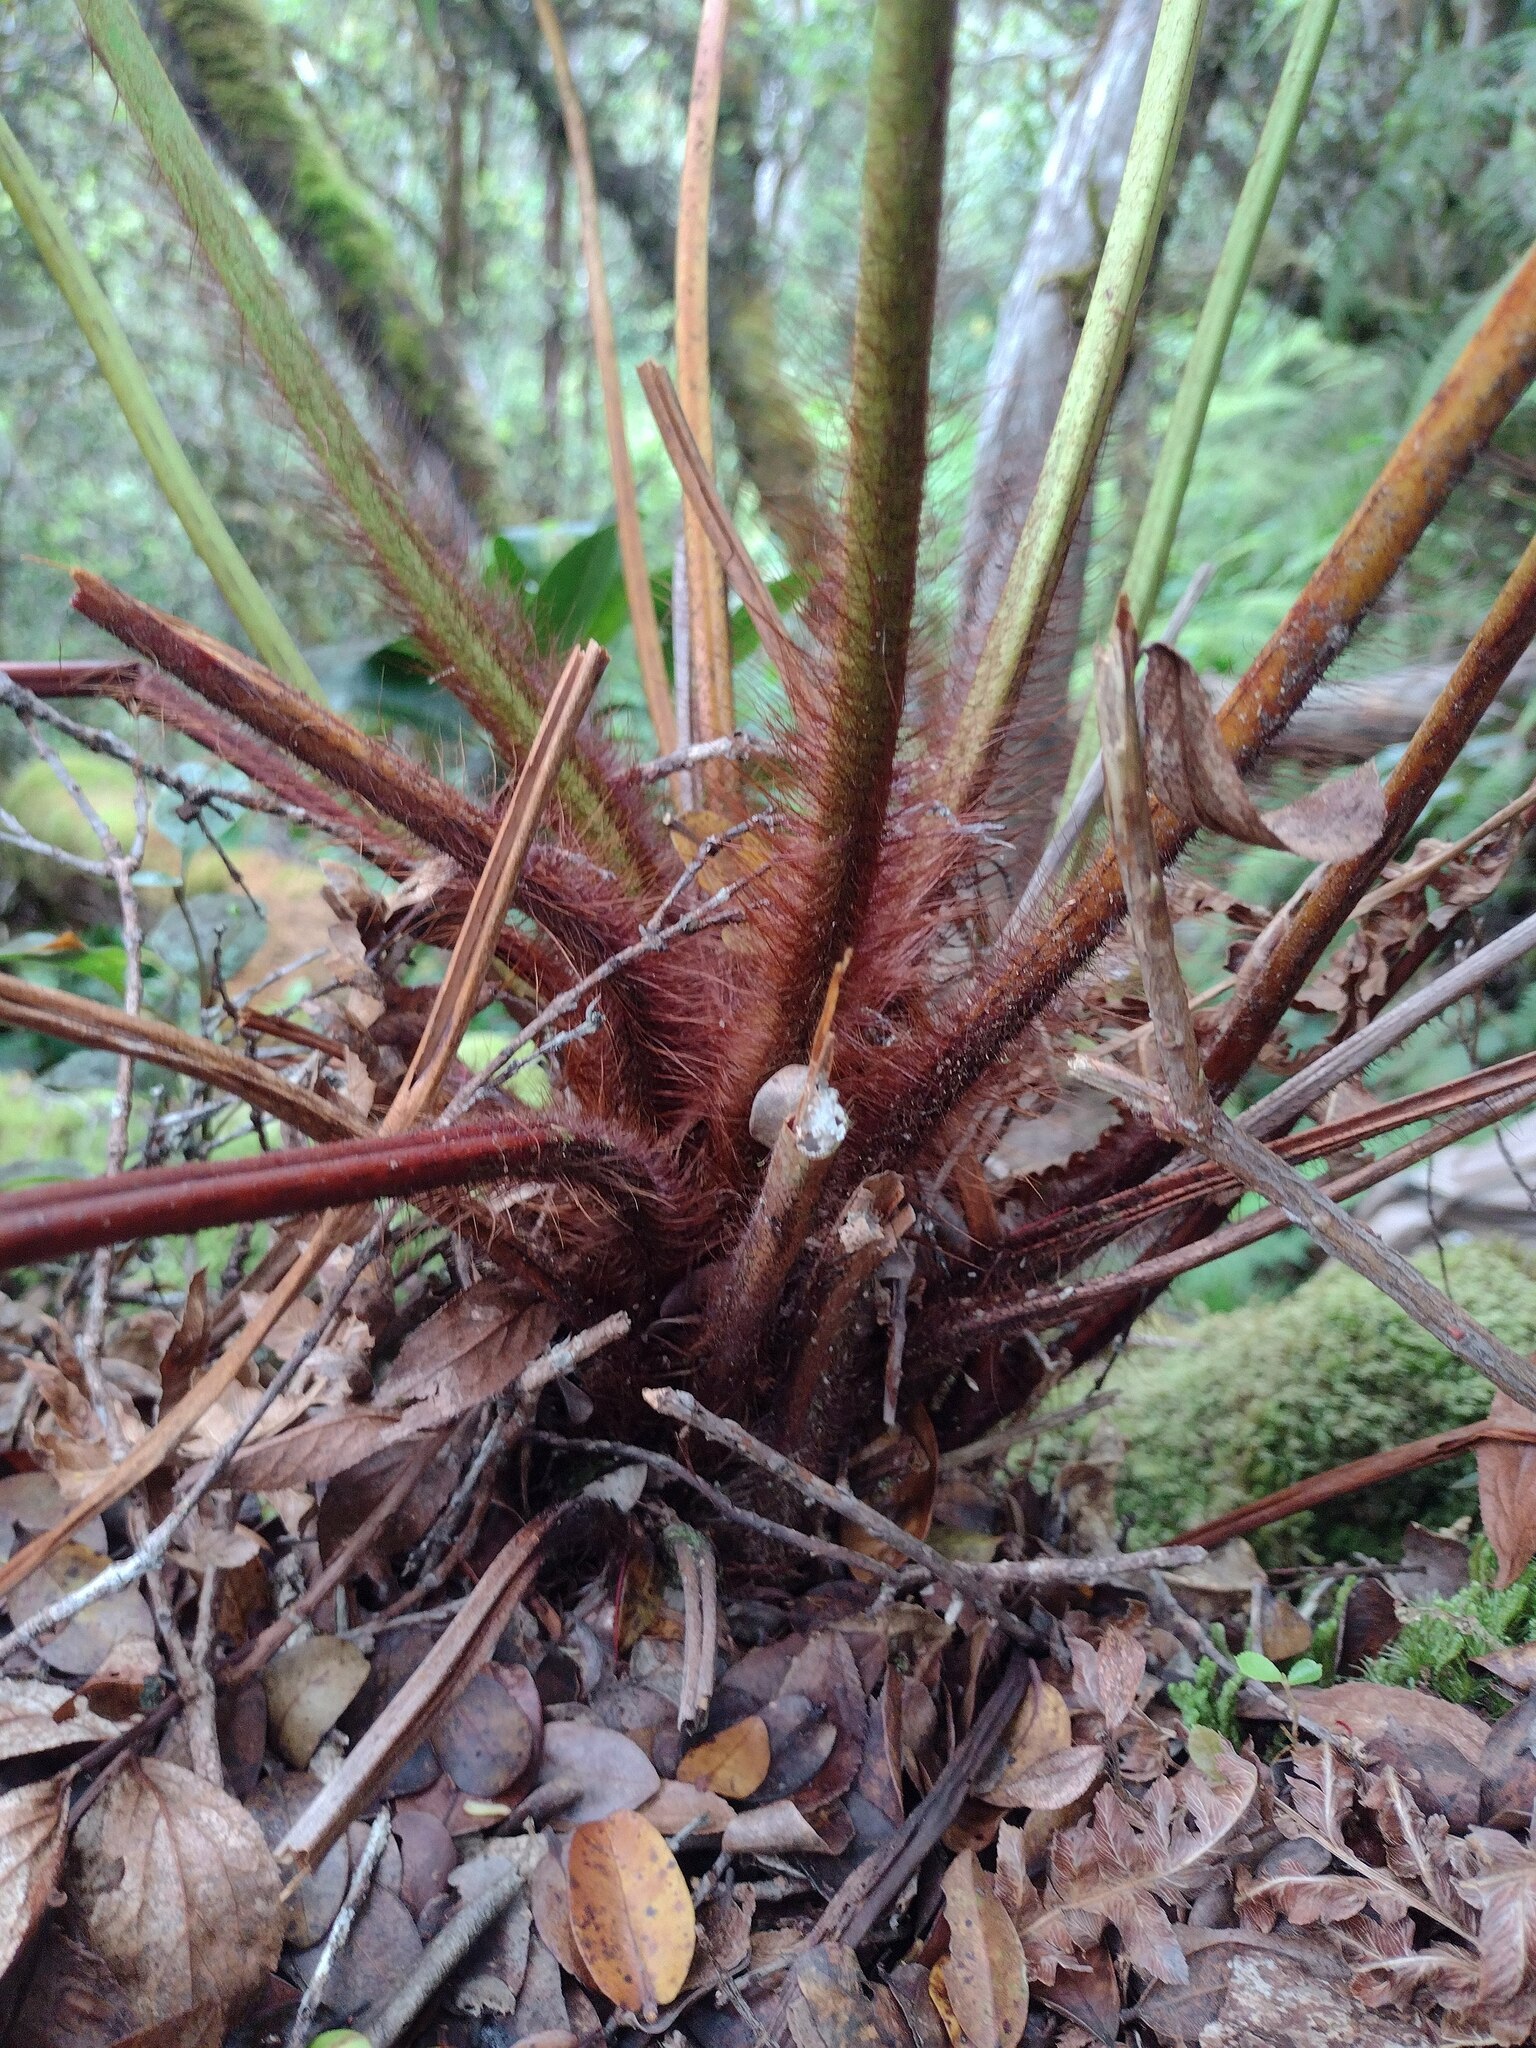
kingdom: Plantae
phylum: Tracheophyta
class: Polypodiopsida
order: Cyatheales
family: Cibotiaceae
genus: Cibotium
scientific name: Cibotium menziesii
